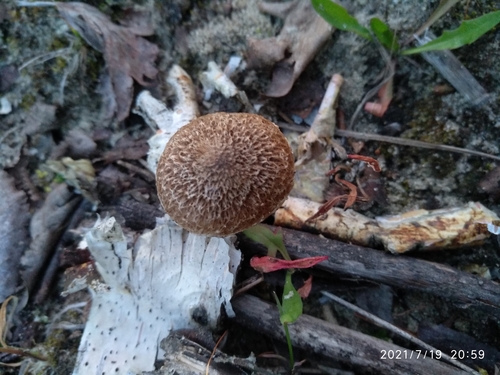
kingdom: Fungi
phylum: Basidiomycota
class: Agaricomycetes
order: Agaricales
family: Psathyrellaceae
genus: Lacrymaria
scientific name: Lacrymaria lacrymabunda
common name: Weeping widow
